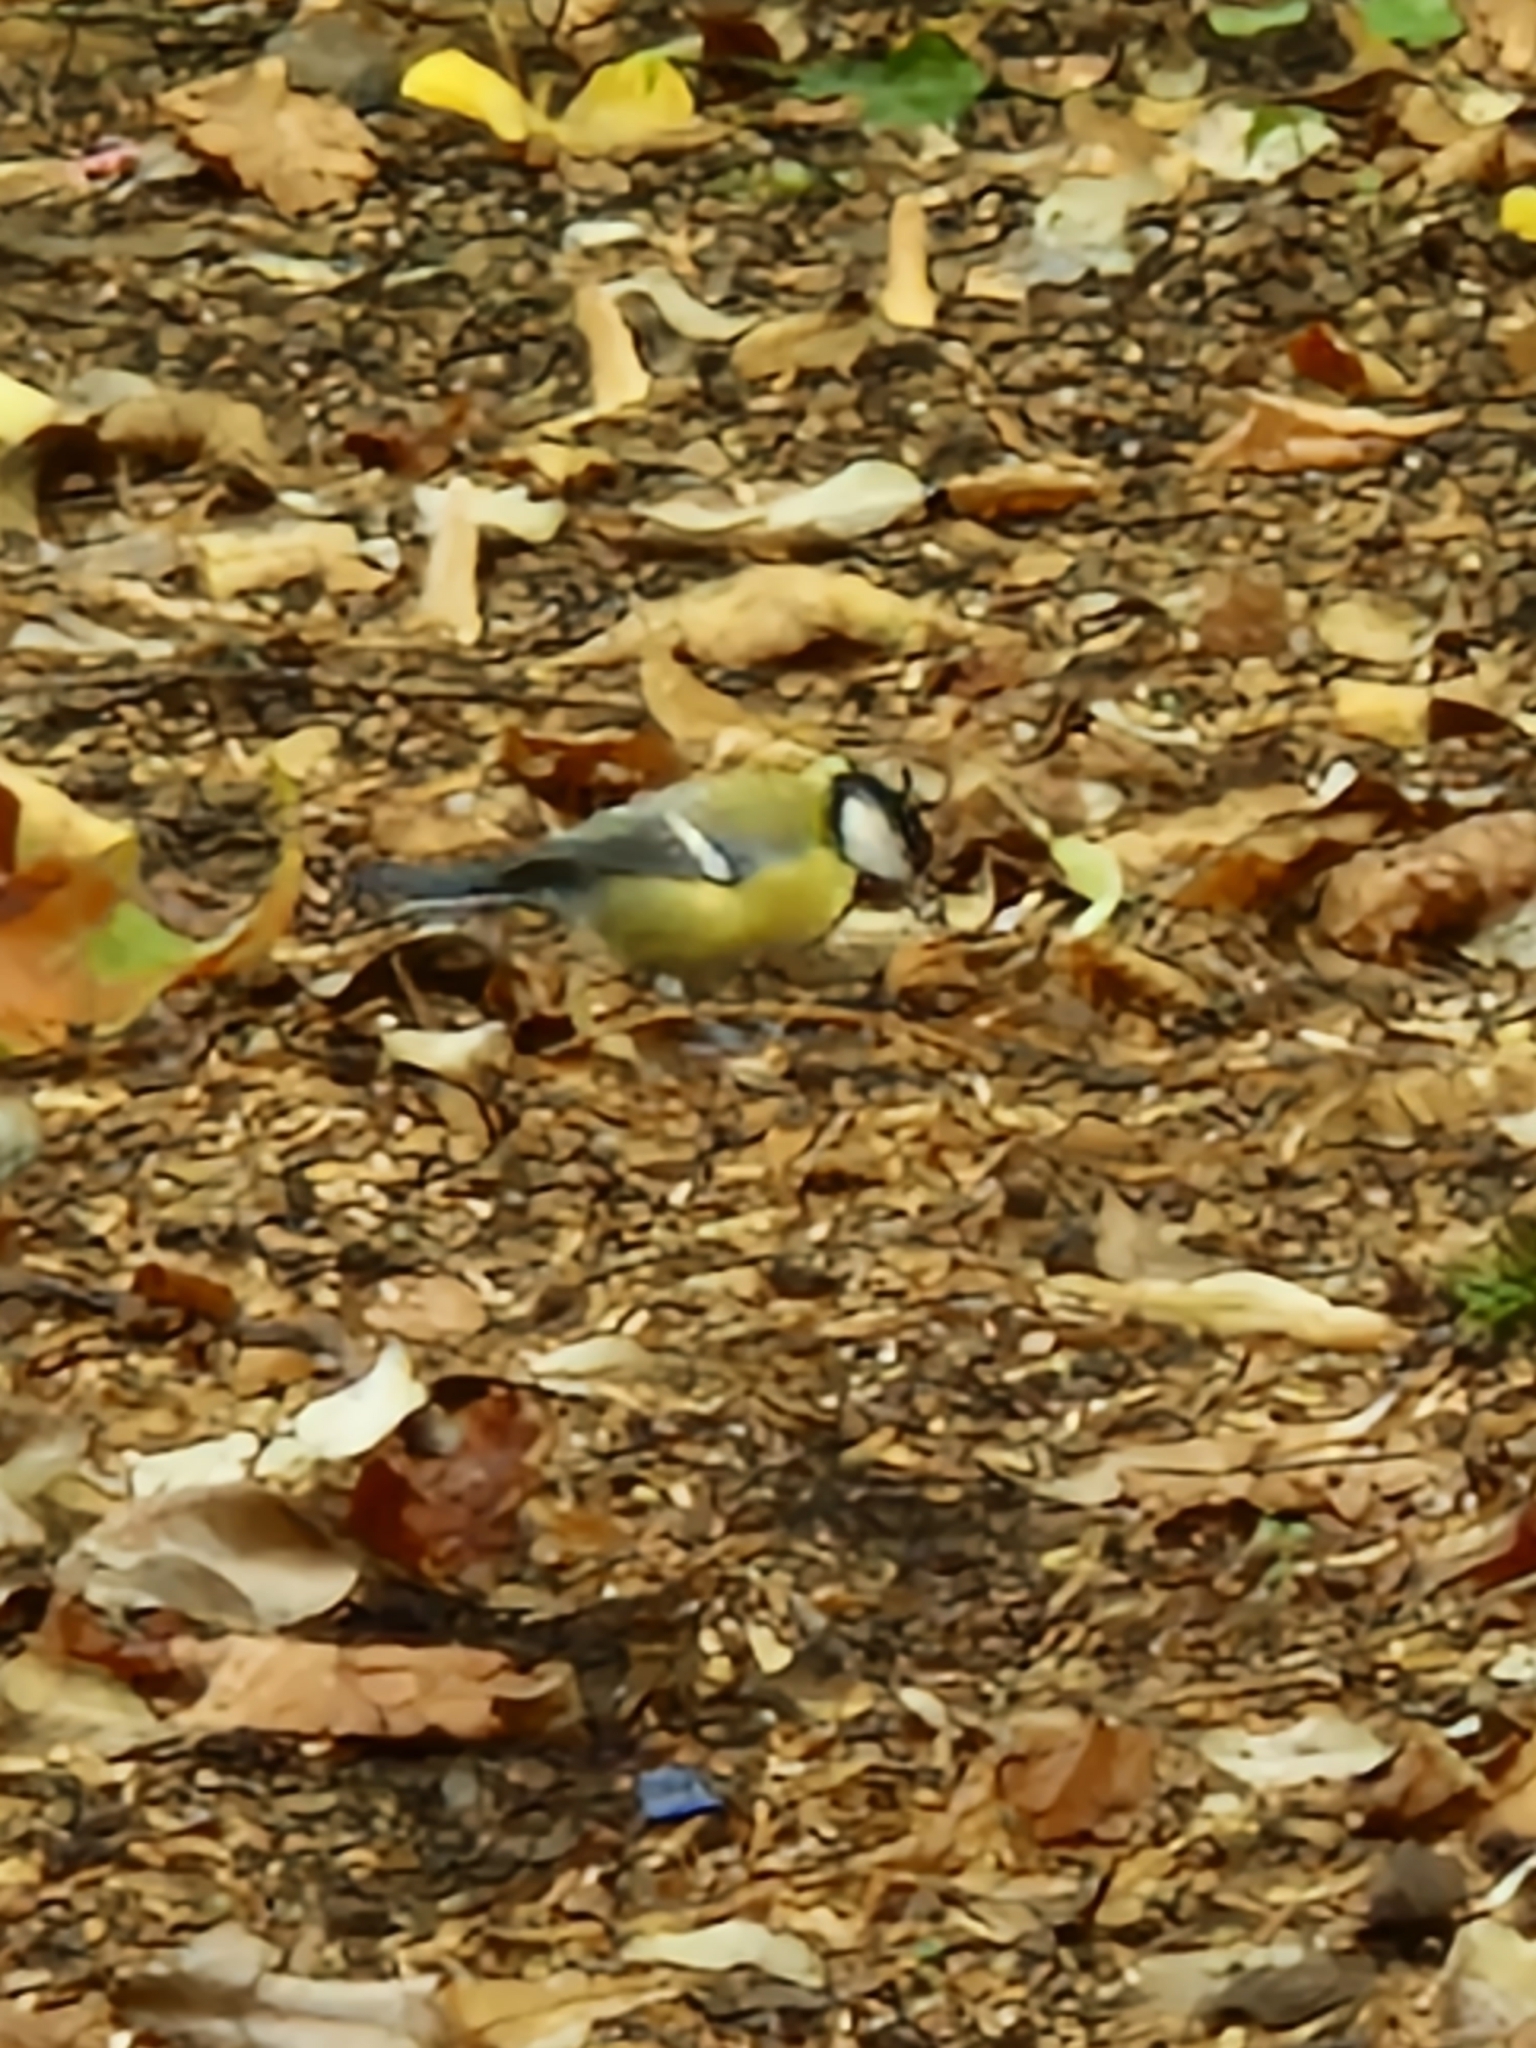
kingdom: Animalia
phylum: Chordata
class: Aves
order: Passeriformes
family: Paridae
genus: Parus
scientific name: Parus major
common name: Great tit
